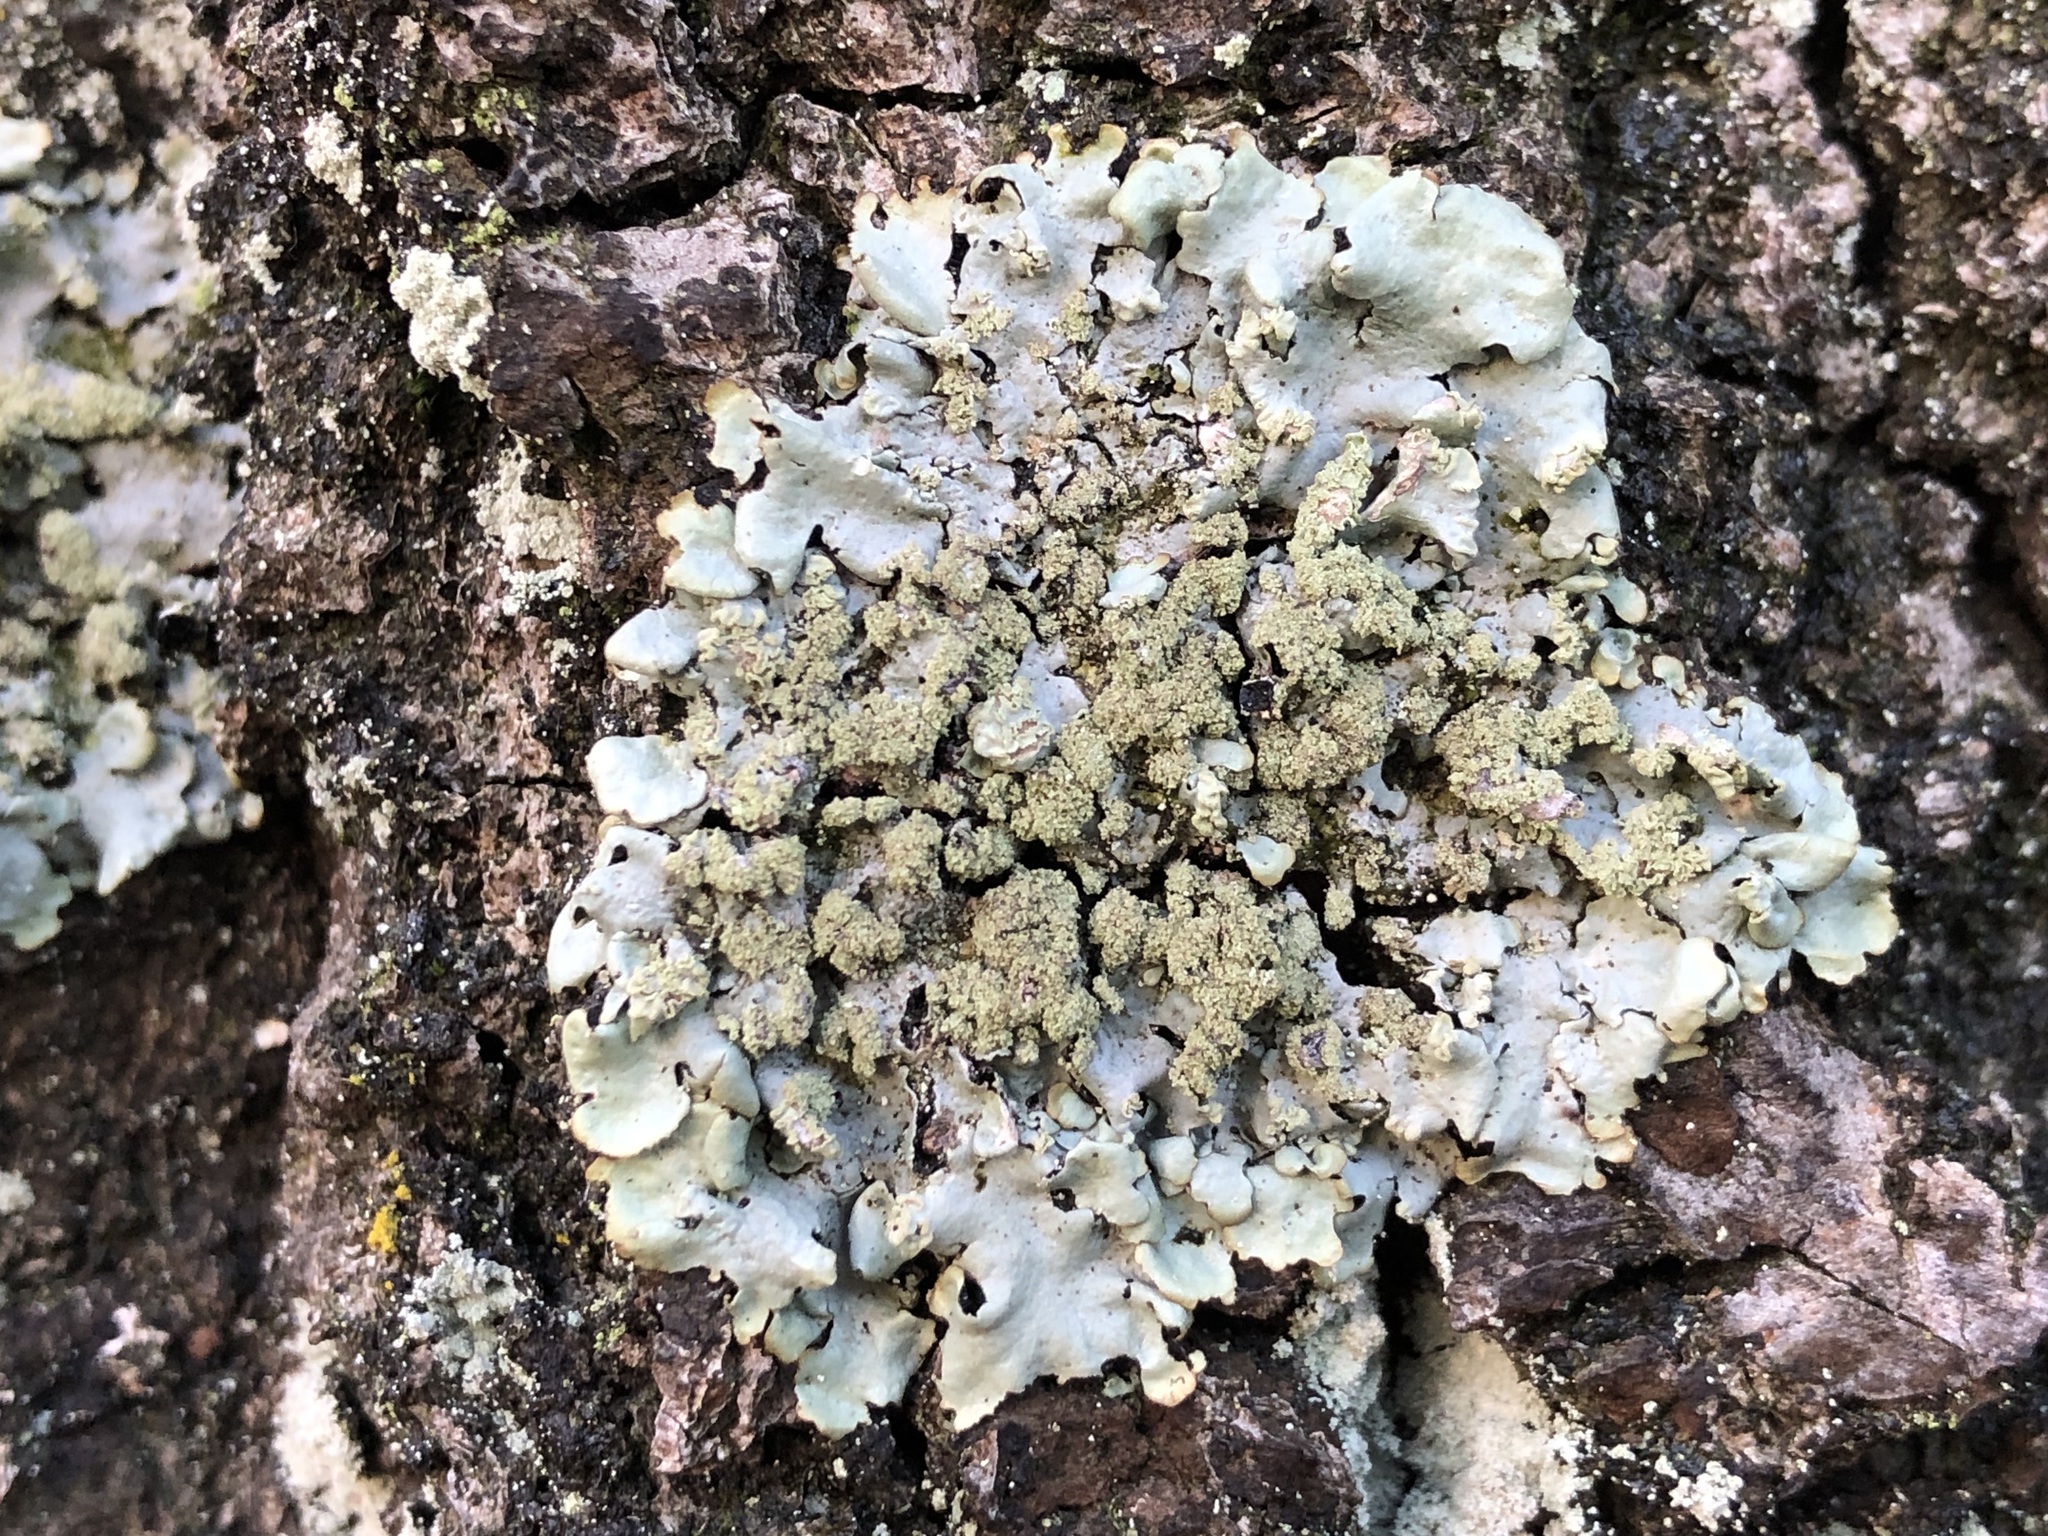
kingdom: Fungi
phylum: Ascomycota
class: Lecanoromycetes
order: Lecanorales
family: Parmeliaceae
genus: Hypotrachyna
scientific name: Hypotrachyna afrorevoluta
